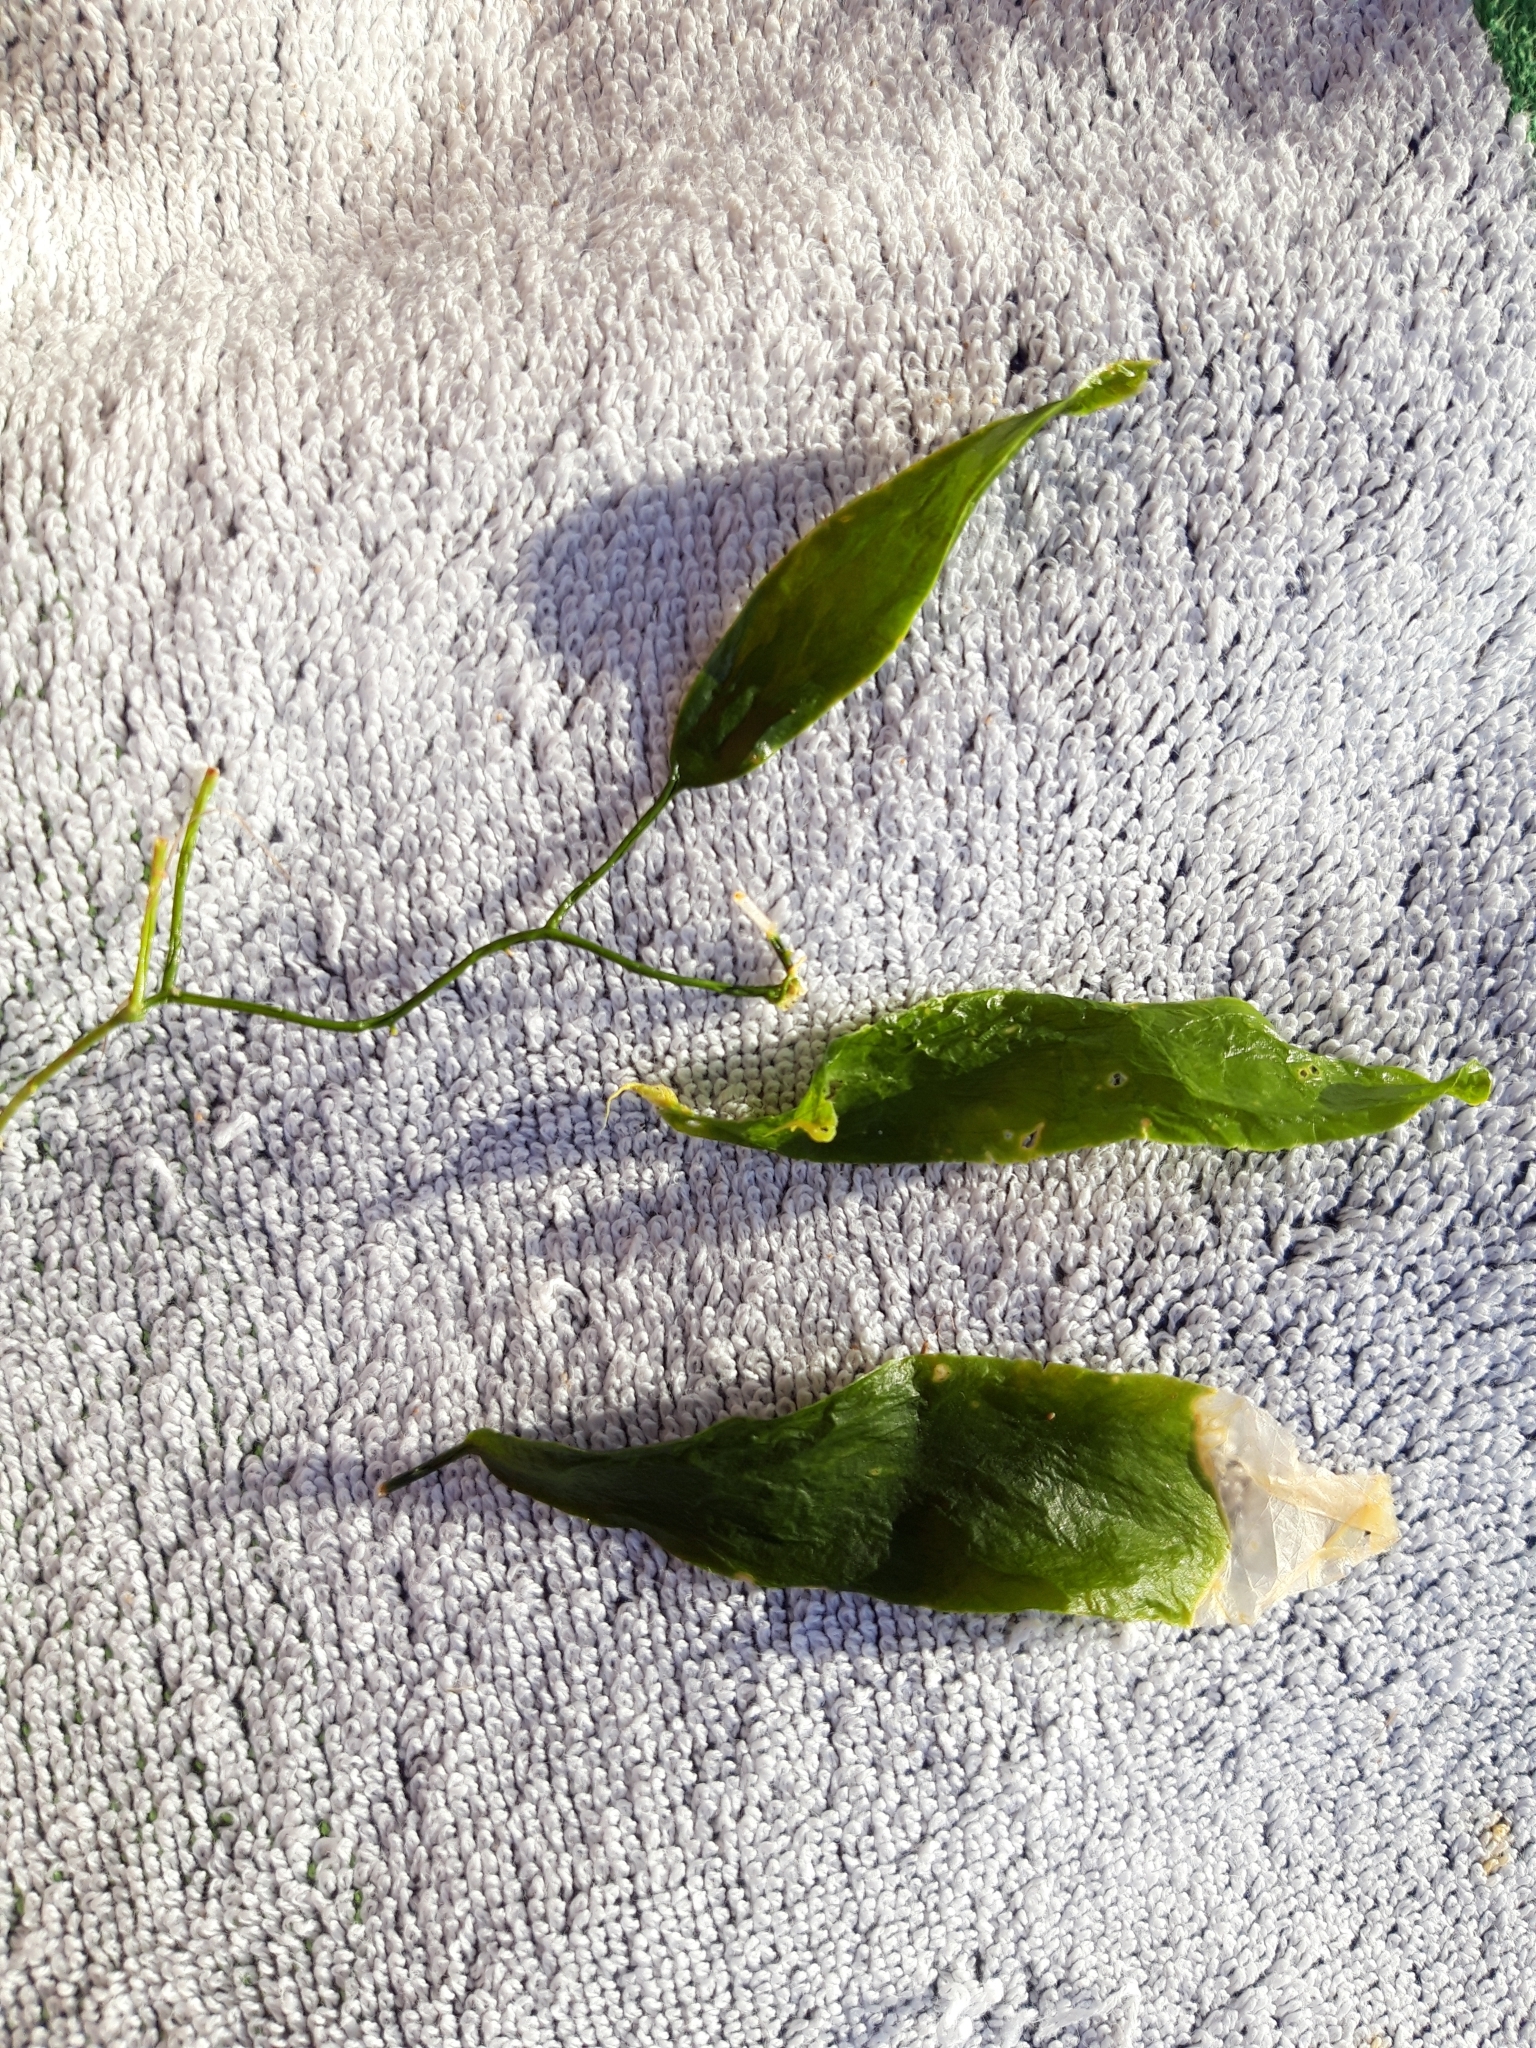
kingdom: Plantae
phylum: Chlorophyta
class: Ulvophyceae
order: Bryopsidales
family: Caulerpaceae
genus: Caulerpa
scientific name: Caulerpa prolifera
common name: Oval-blade algae
